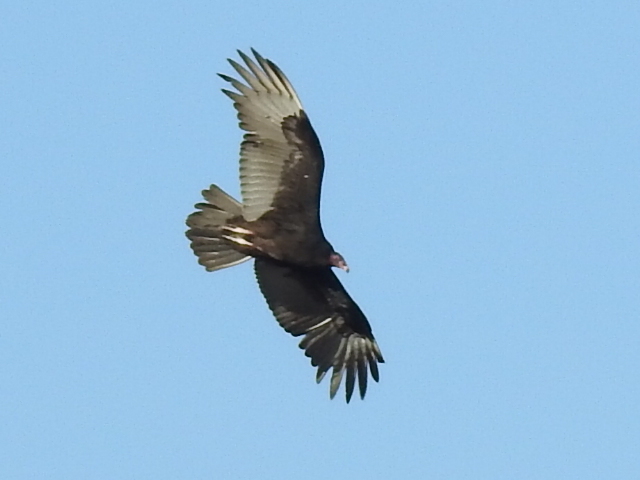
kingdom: Animalia
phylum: Chordata
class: Aves
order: Accipitriformes
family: Cathartidae
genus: Cathartes
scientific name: Cathartes aura
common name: Turkey vulture
